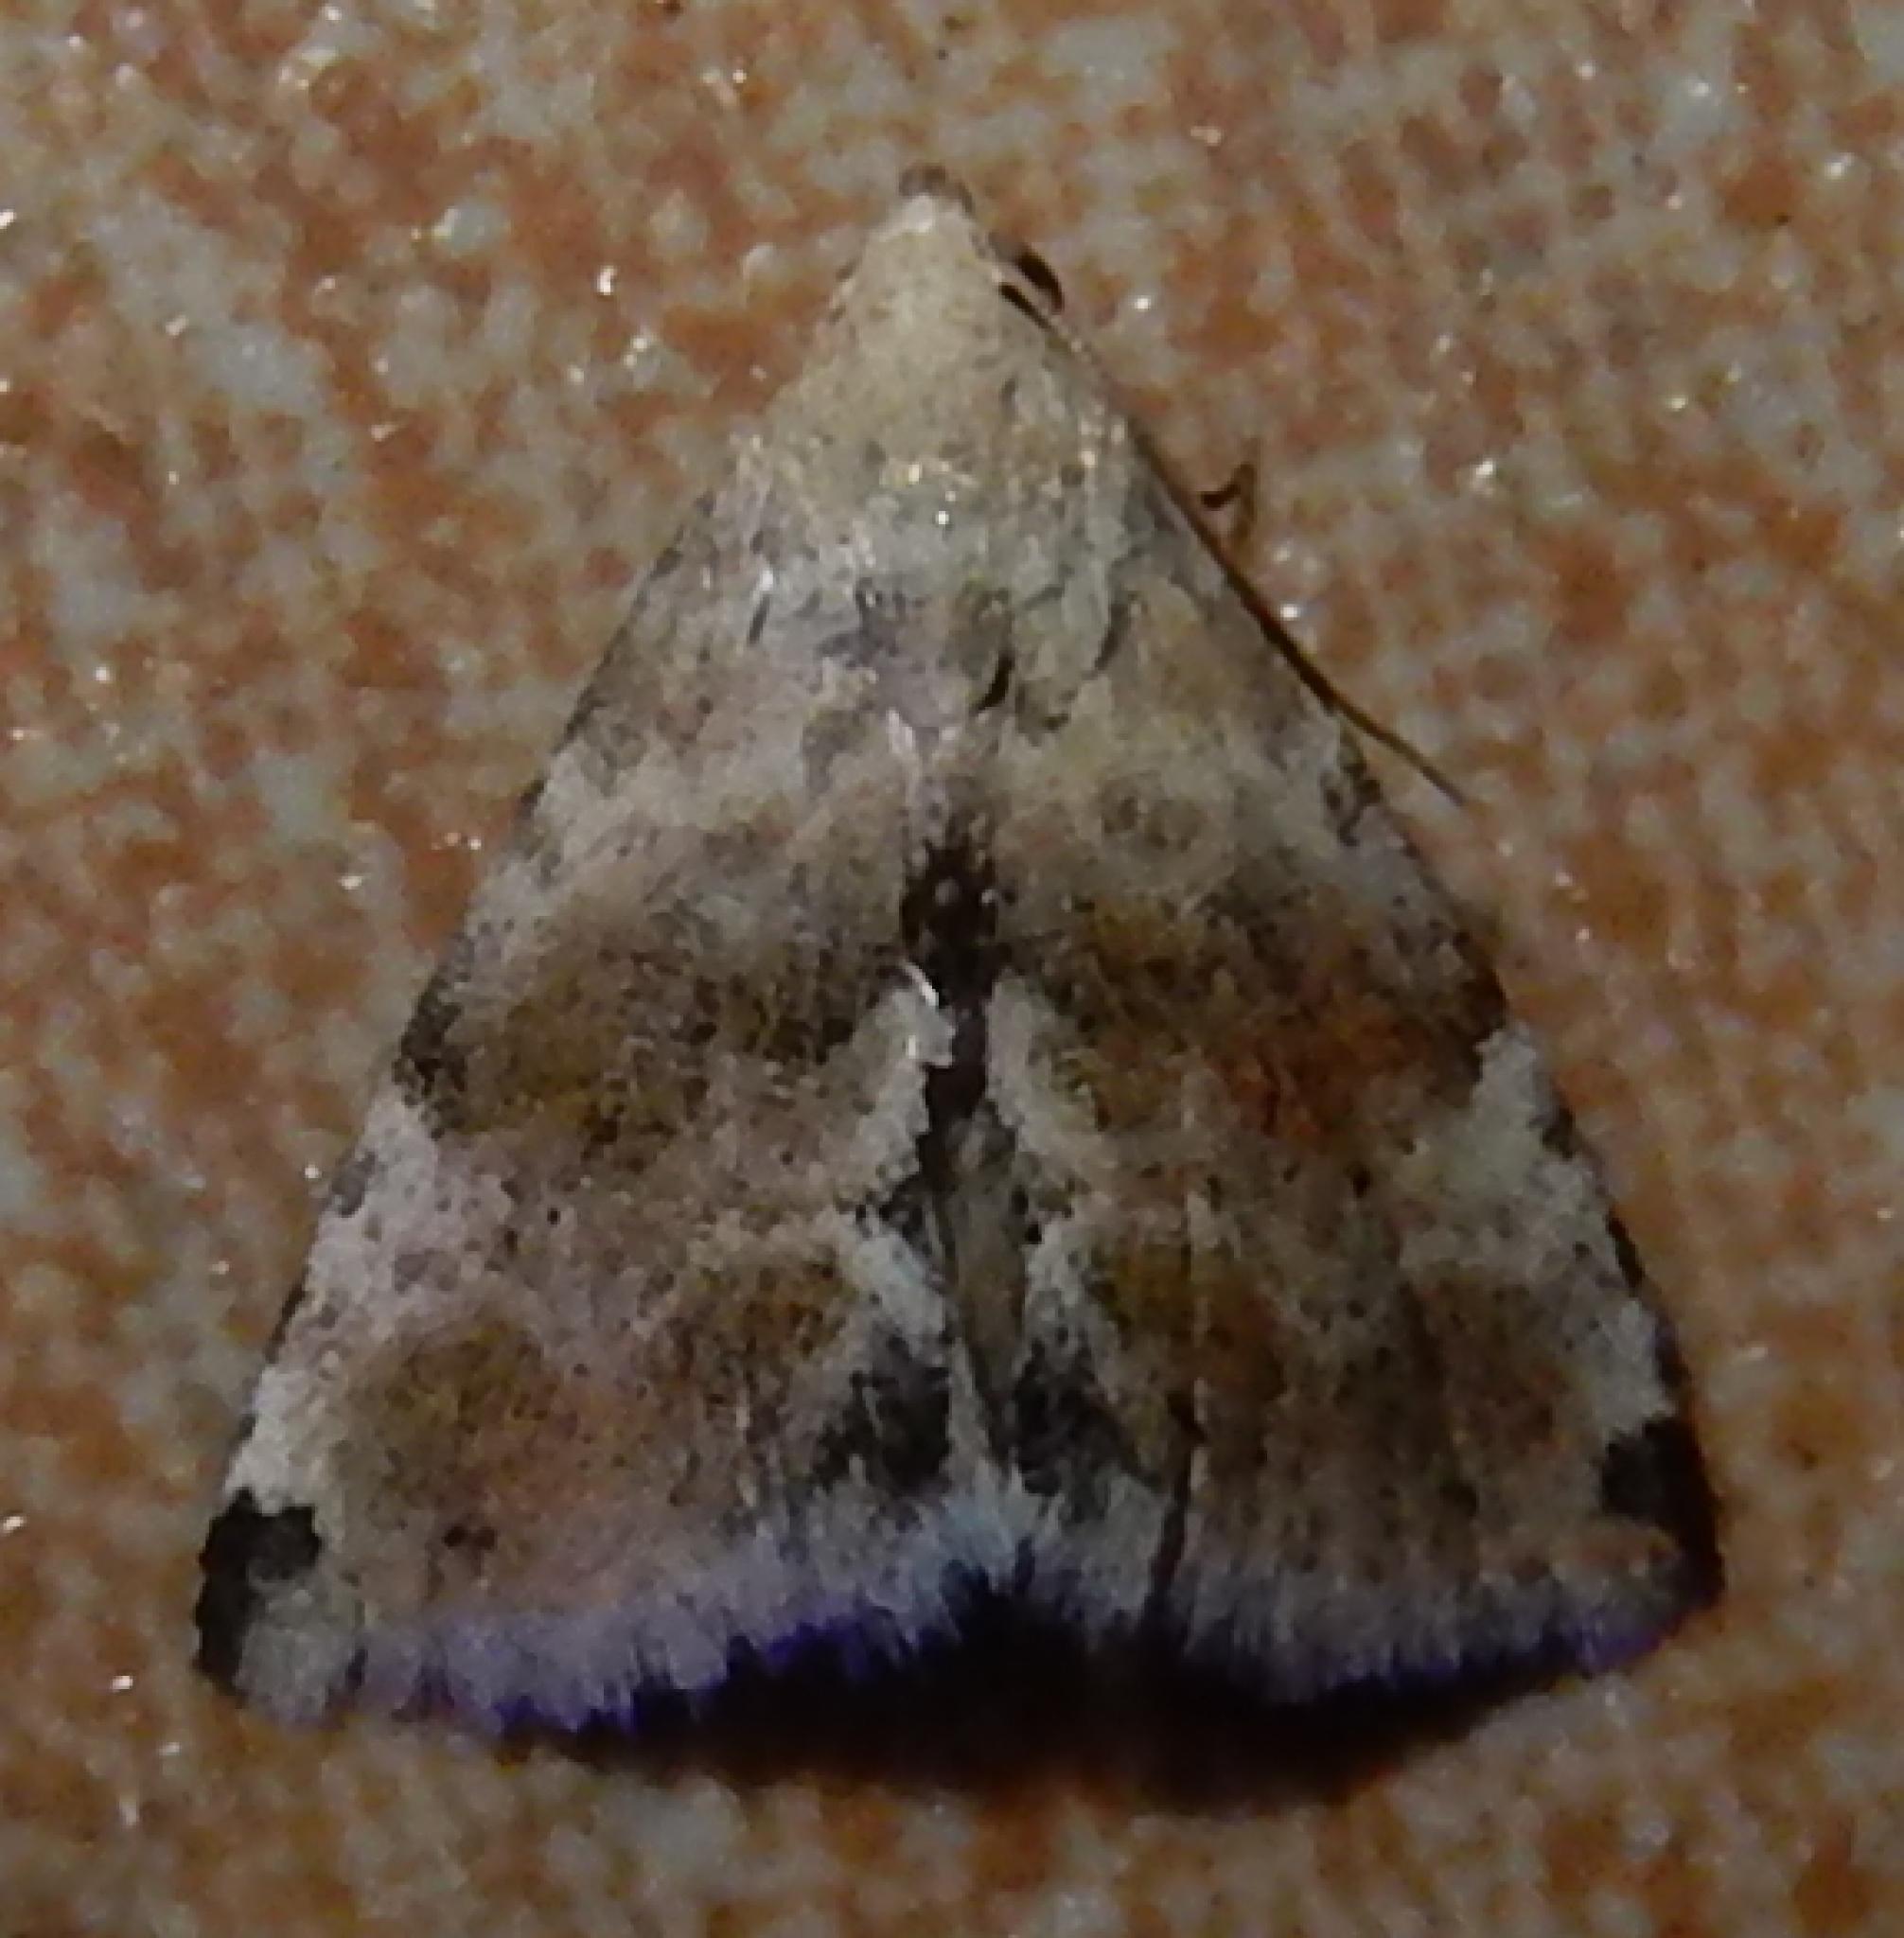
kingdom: Animalia
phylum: Arthropoda
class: Insecta
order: Lepidoptera
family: Noctuidae
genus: Eublemma
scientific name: Eublemma minima
